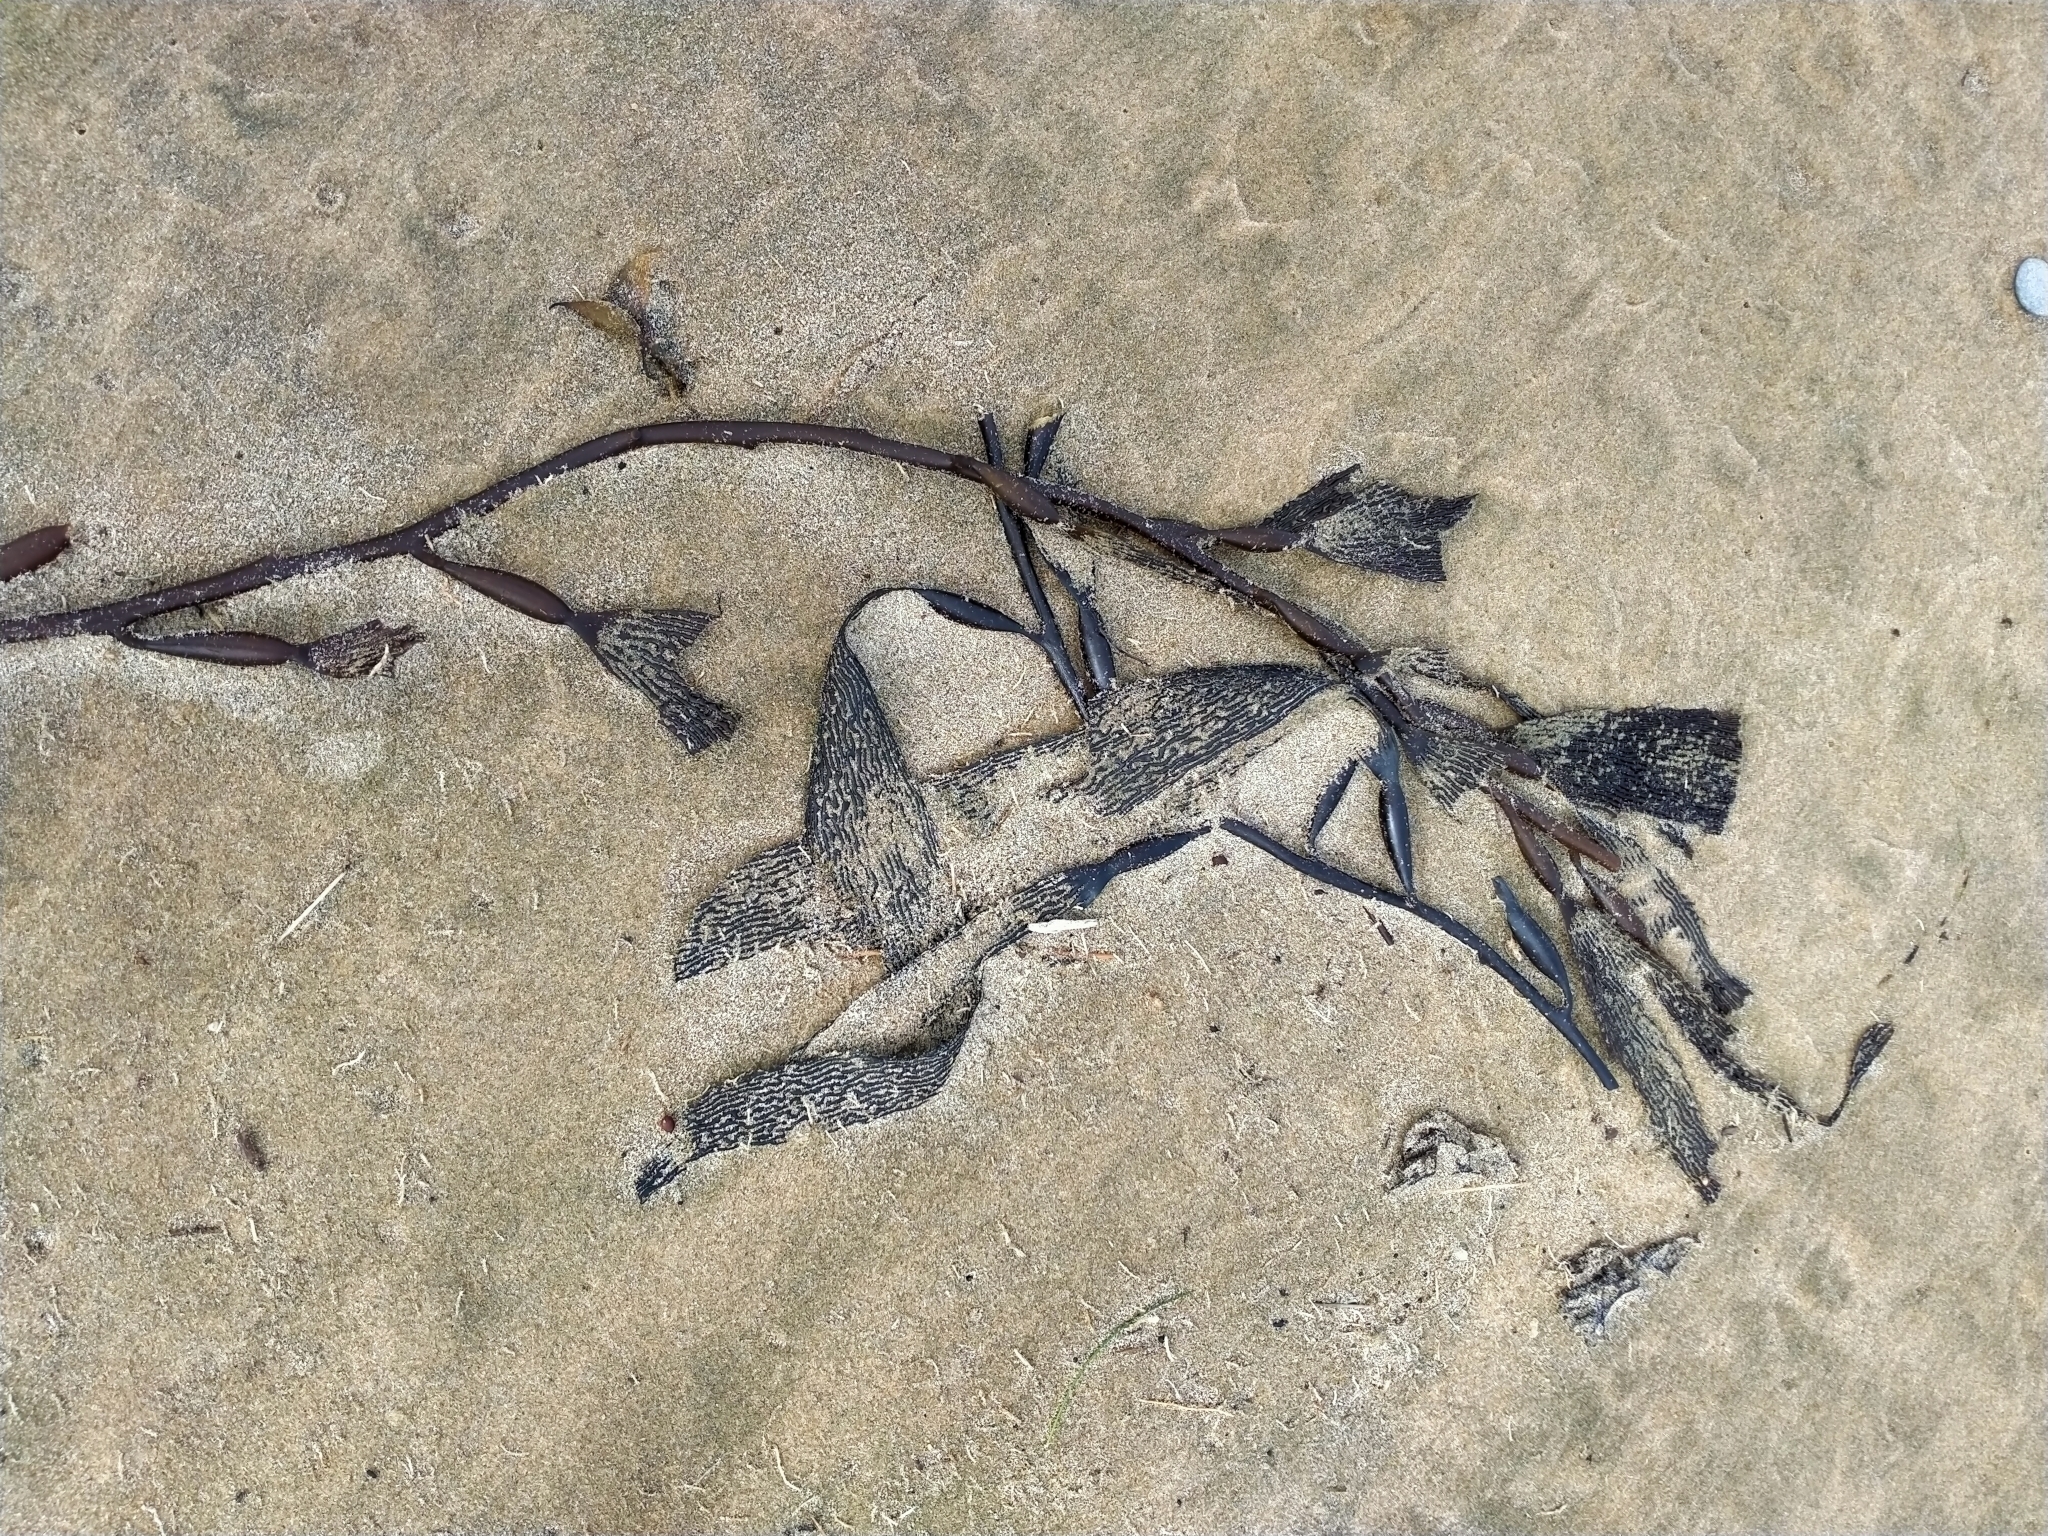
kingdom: Chromista
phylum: Ochrophyta
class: Phaeophyceae
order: Laminariales
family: Laminariaceae
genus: Macrocystis
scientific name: Macrocystis pyrifera
